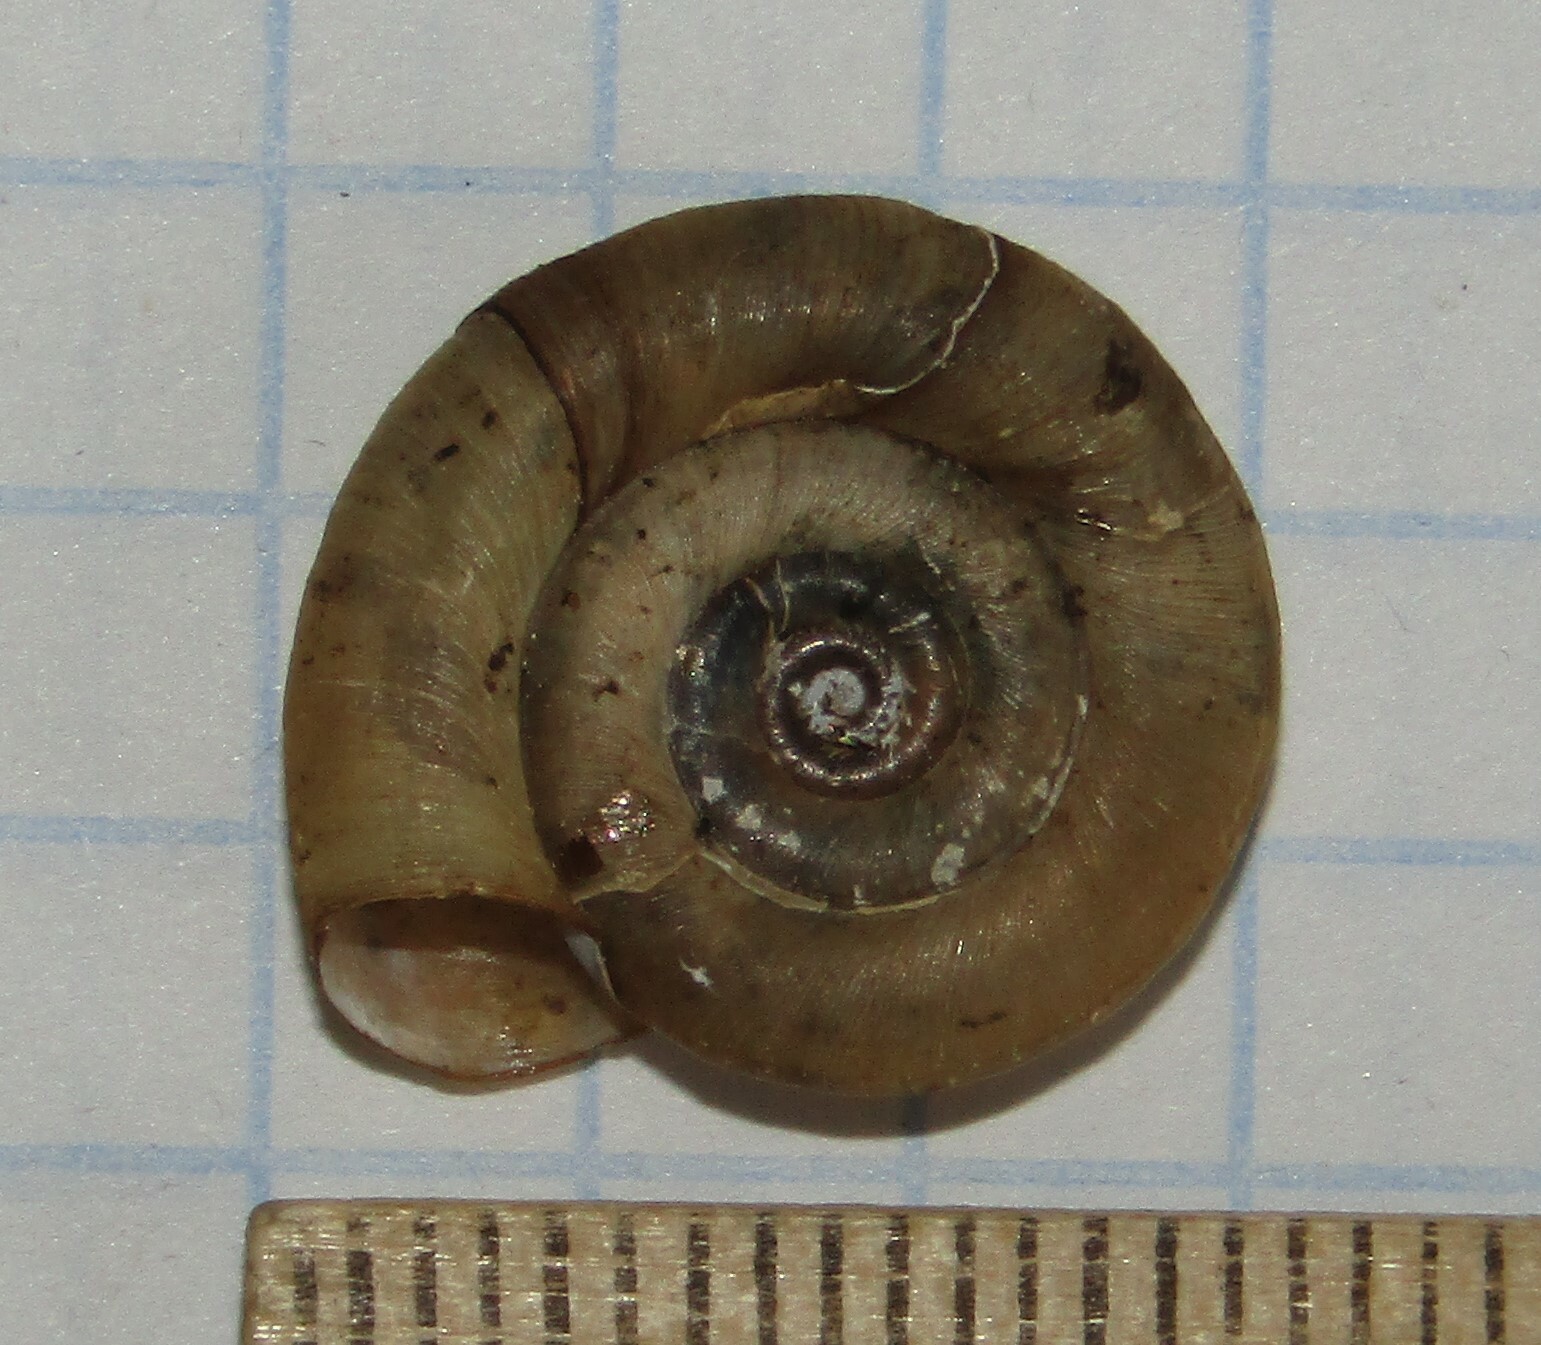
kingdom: Animalia
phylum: Mollusca
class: Gastropoda
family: Planorbidae
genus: Planorbis
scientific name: Planorbis planorbis
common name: Margined ramshorn
